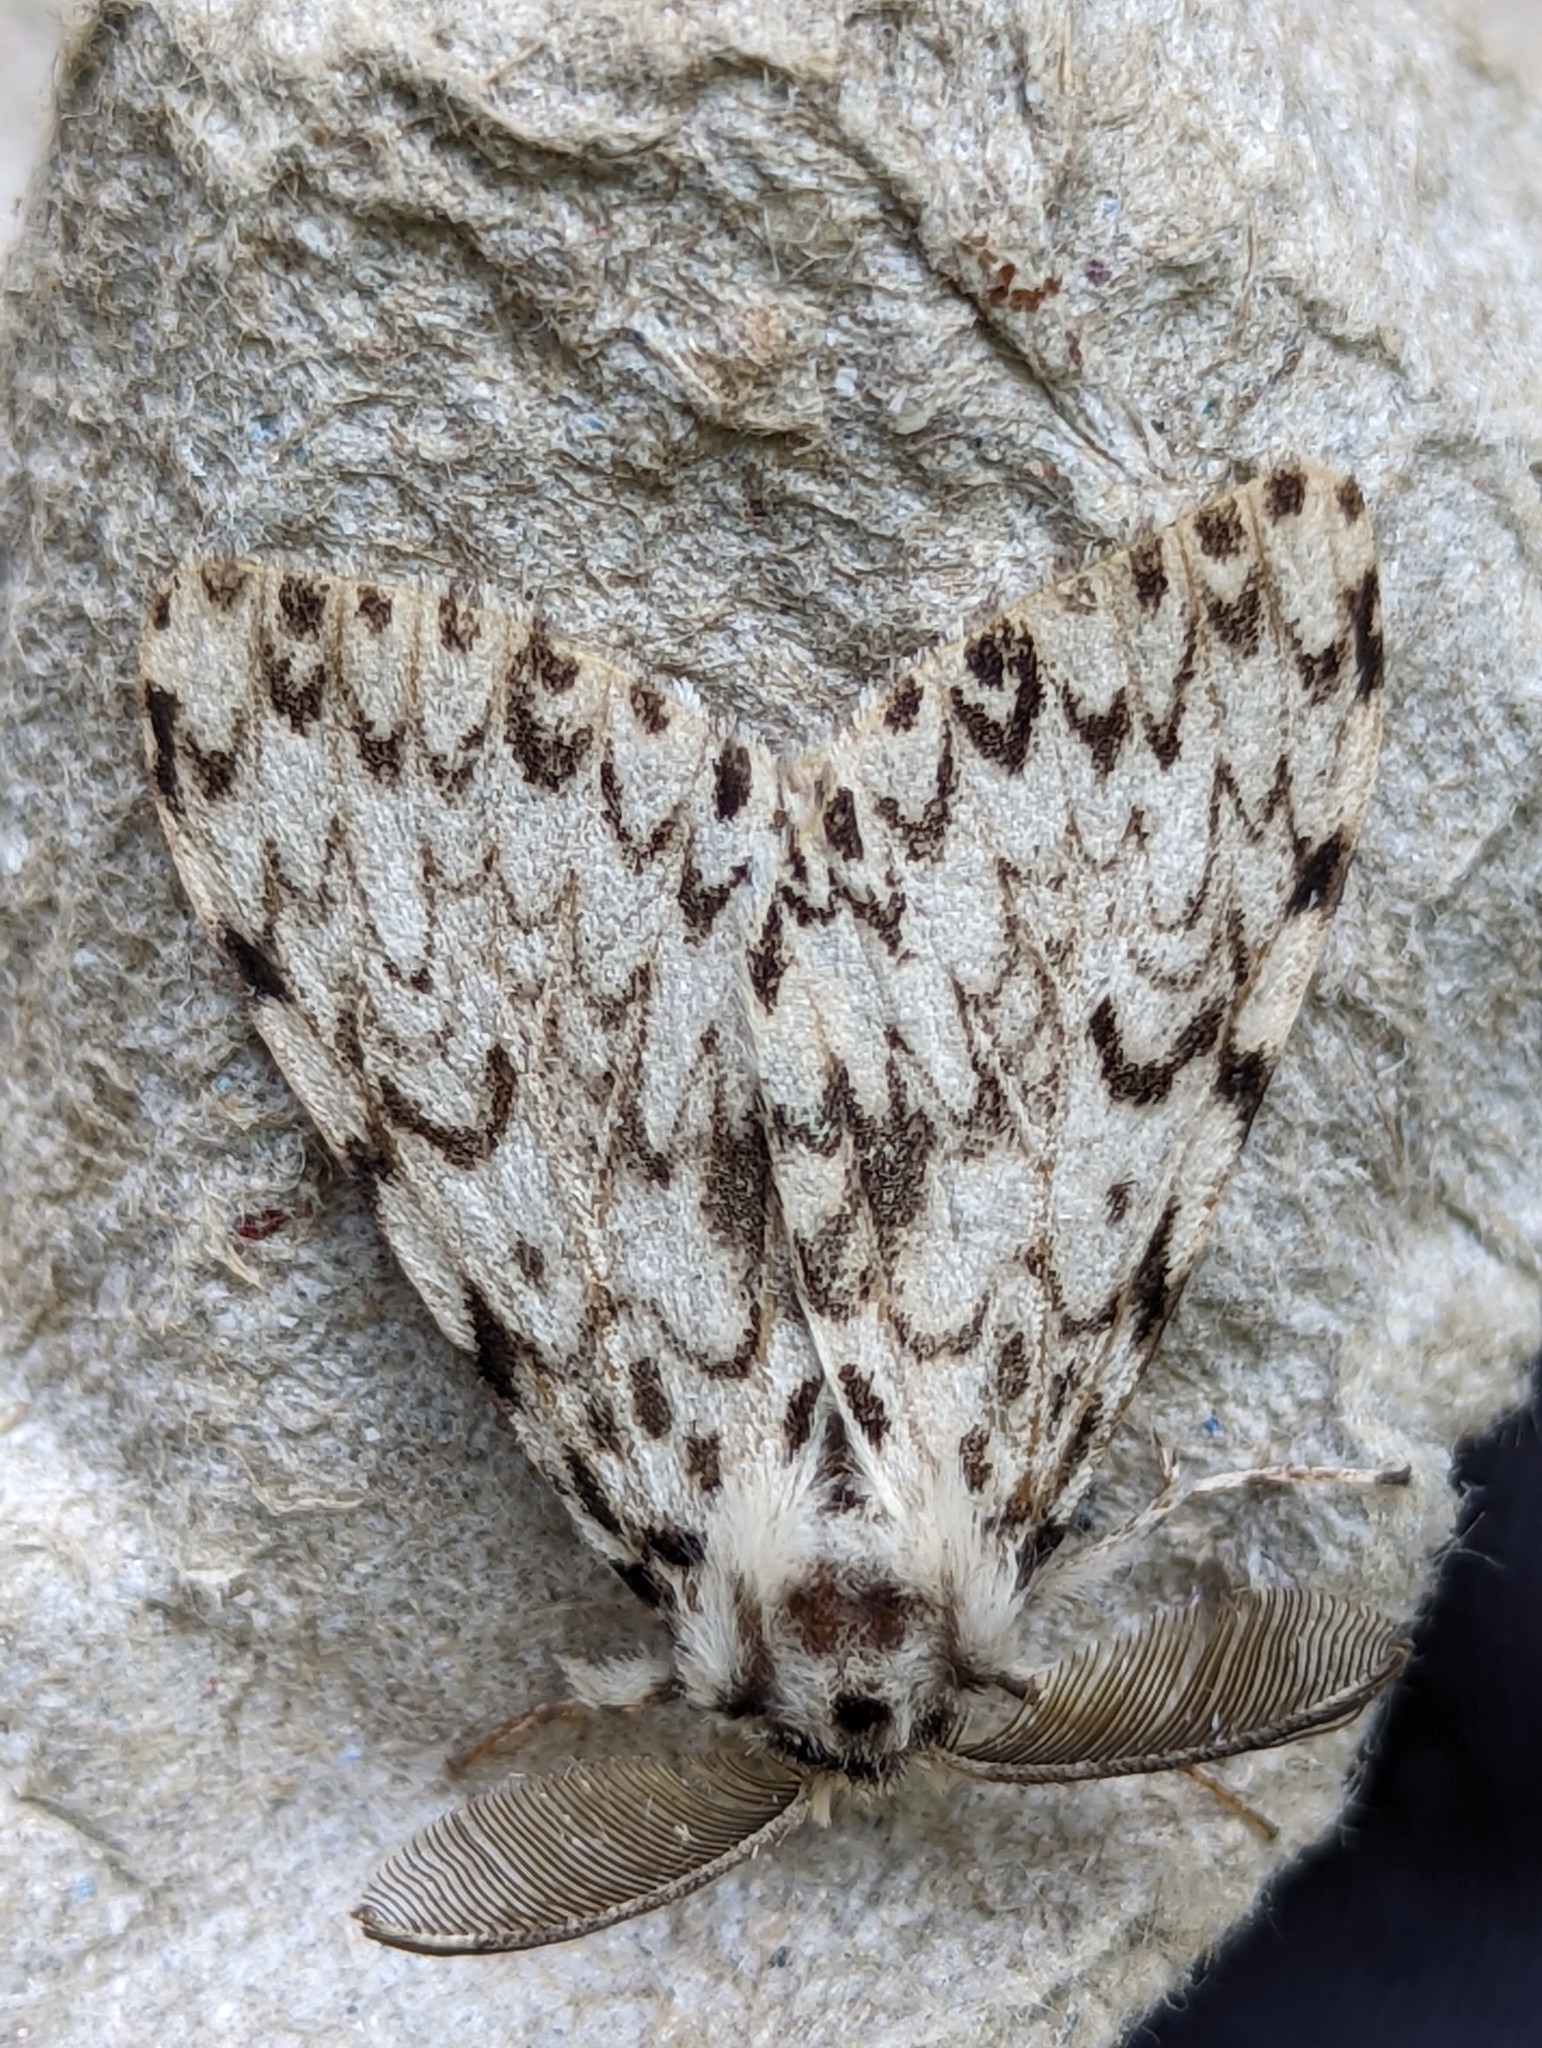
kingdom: Animalia
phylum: Arthropoda
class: Insecta
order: Lepidoptera
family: Erebidae
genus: Lymantria
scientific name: Lymantria monacha
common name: Black arches
